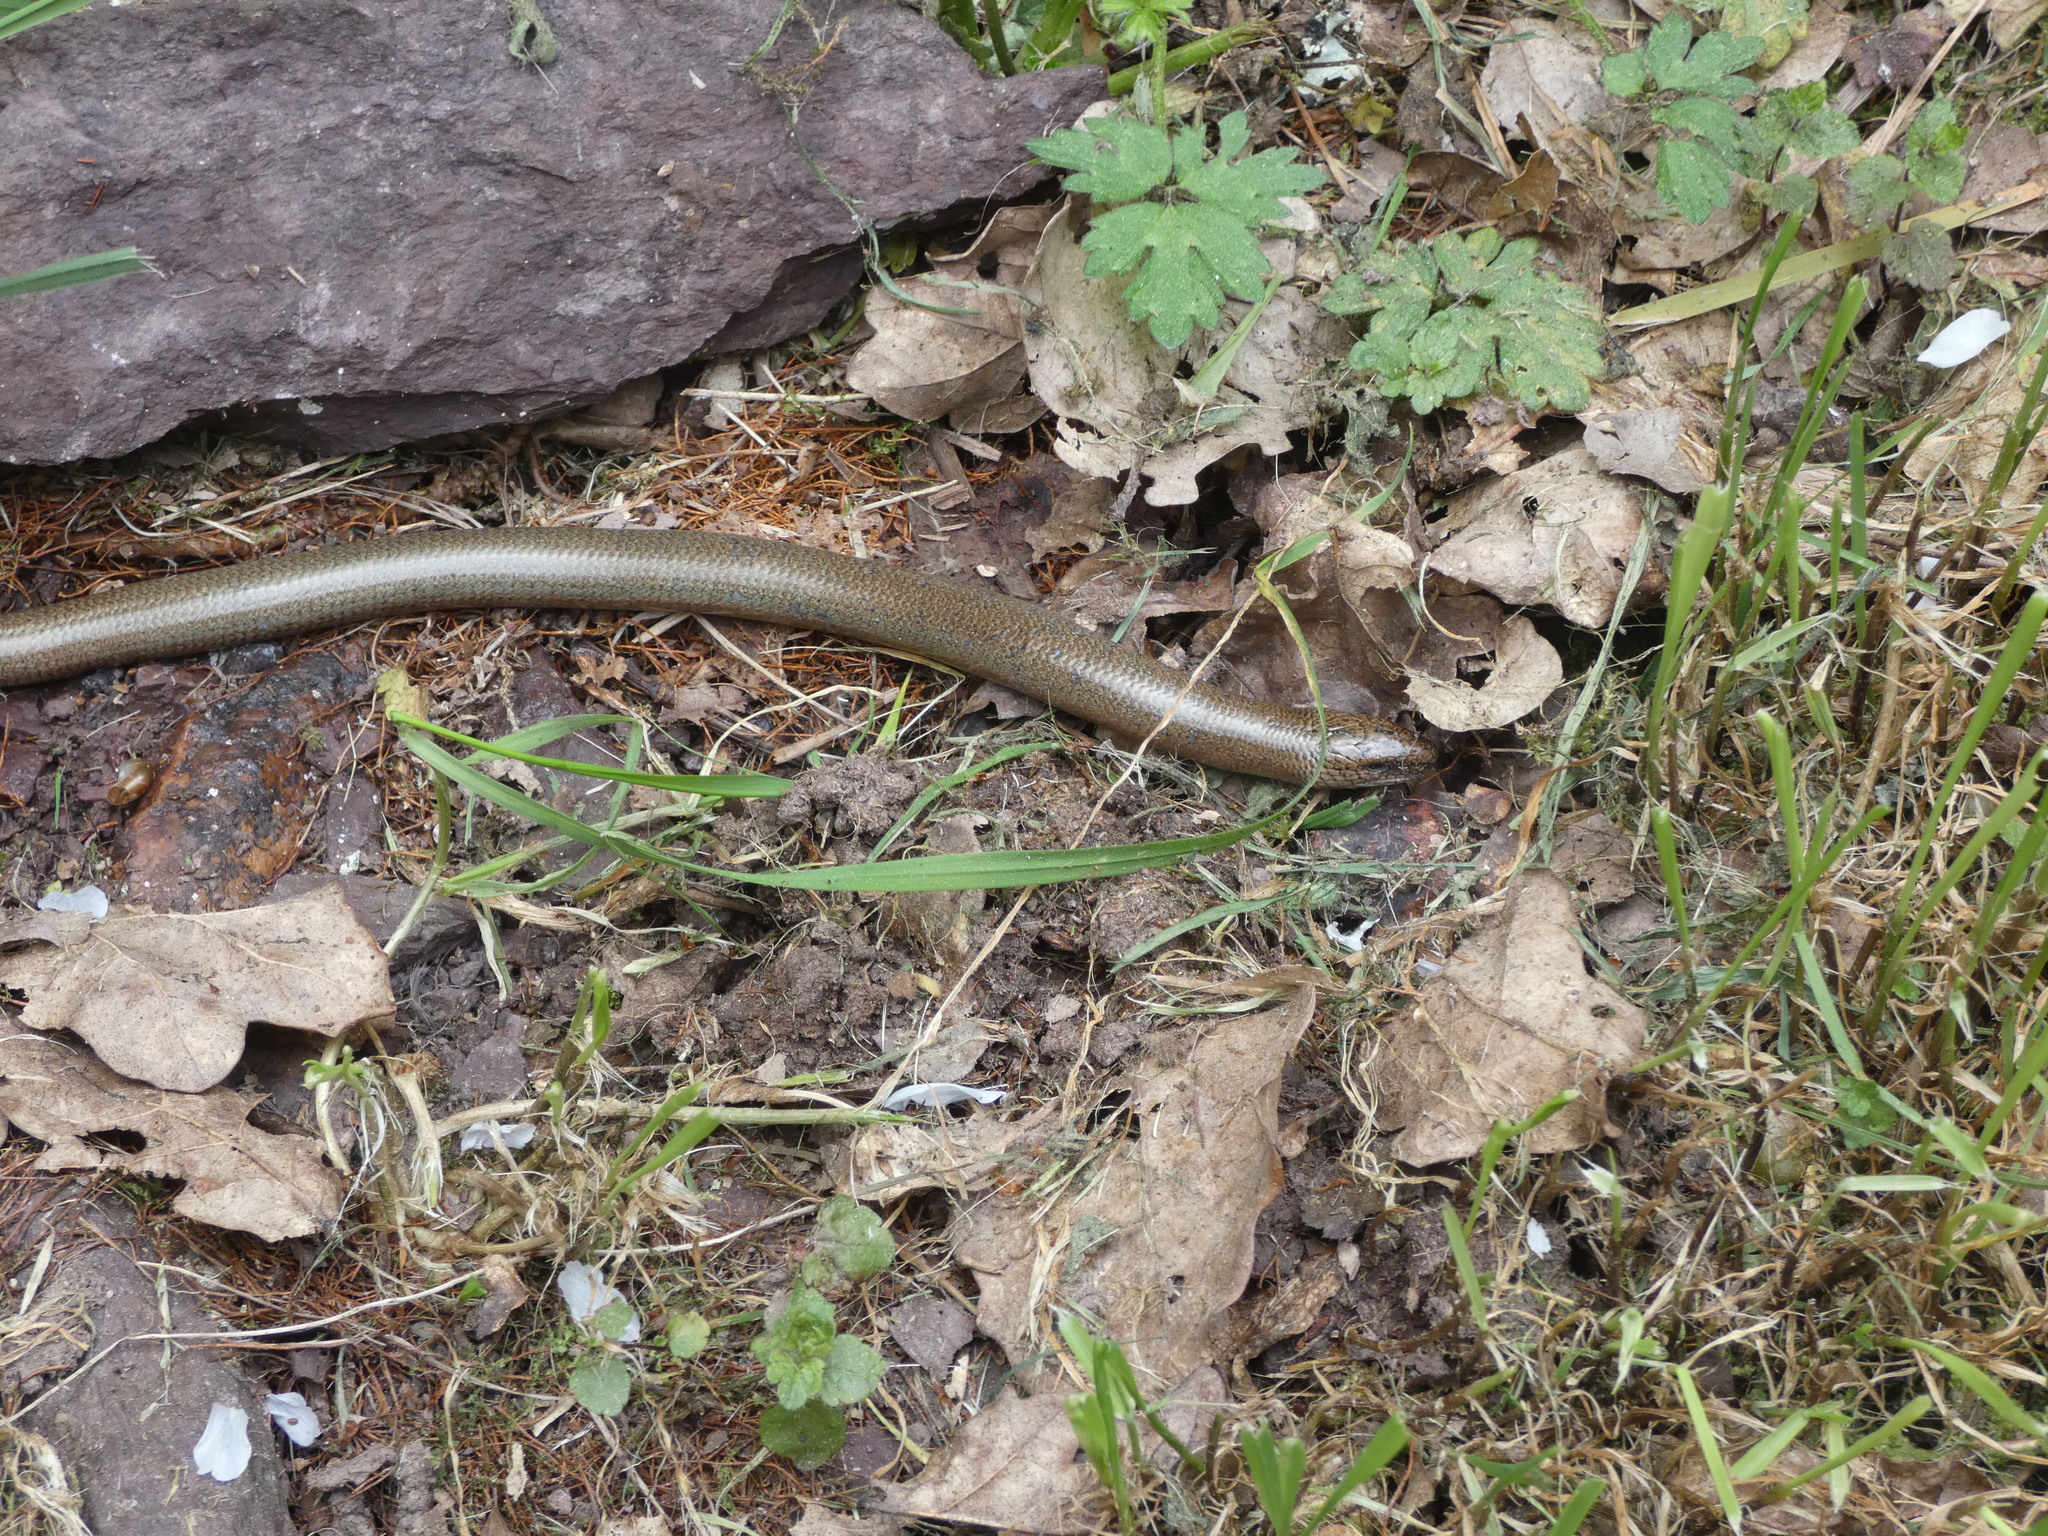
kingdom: Animalia
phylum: Chordata
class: Squamata
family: Anguidae
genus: Anguis
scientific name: Anguis fragilis
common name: Slow worm
